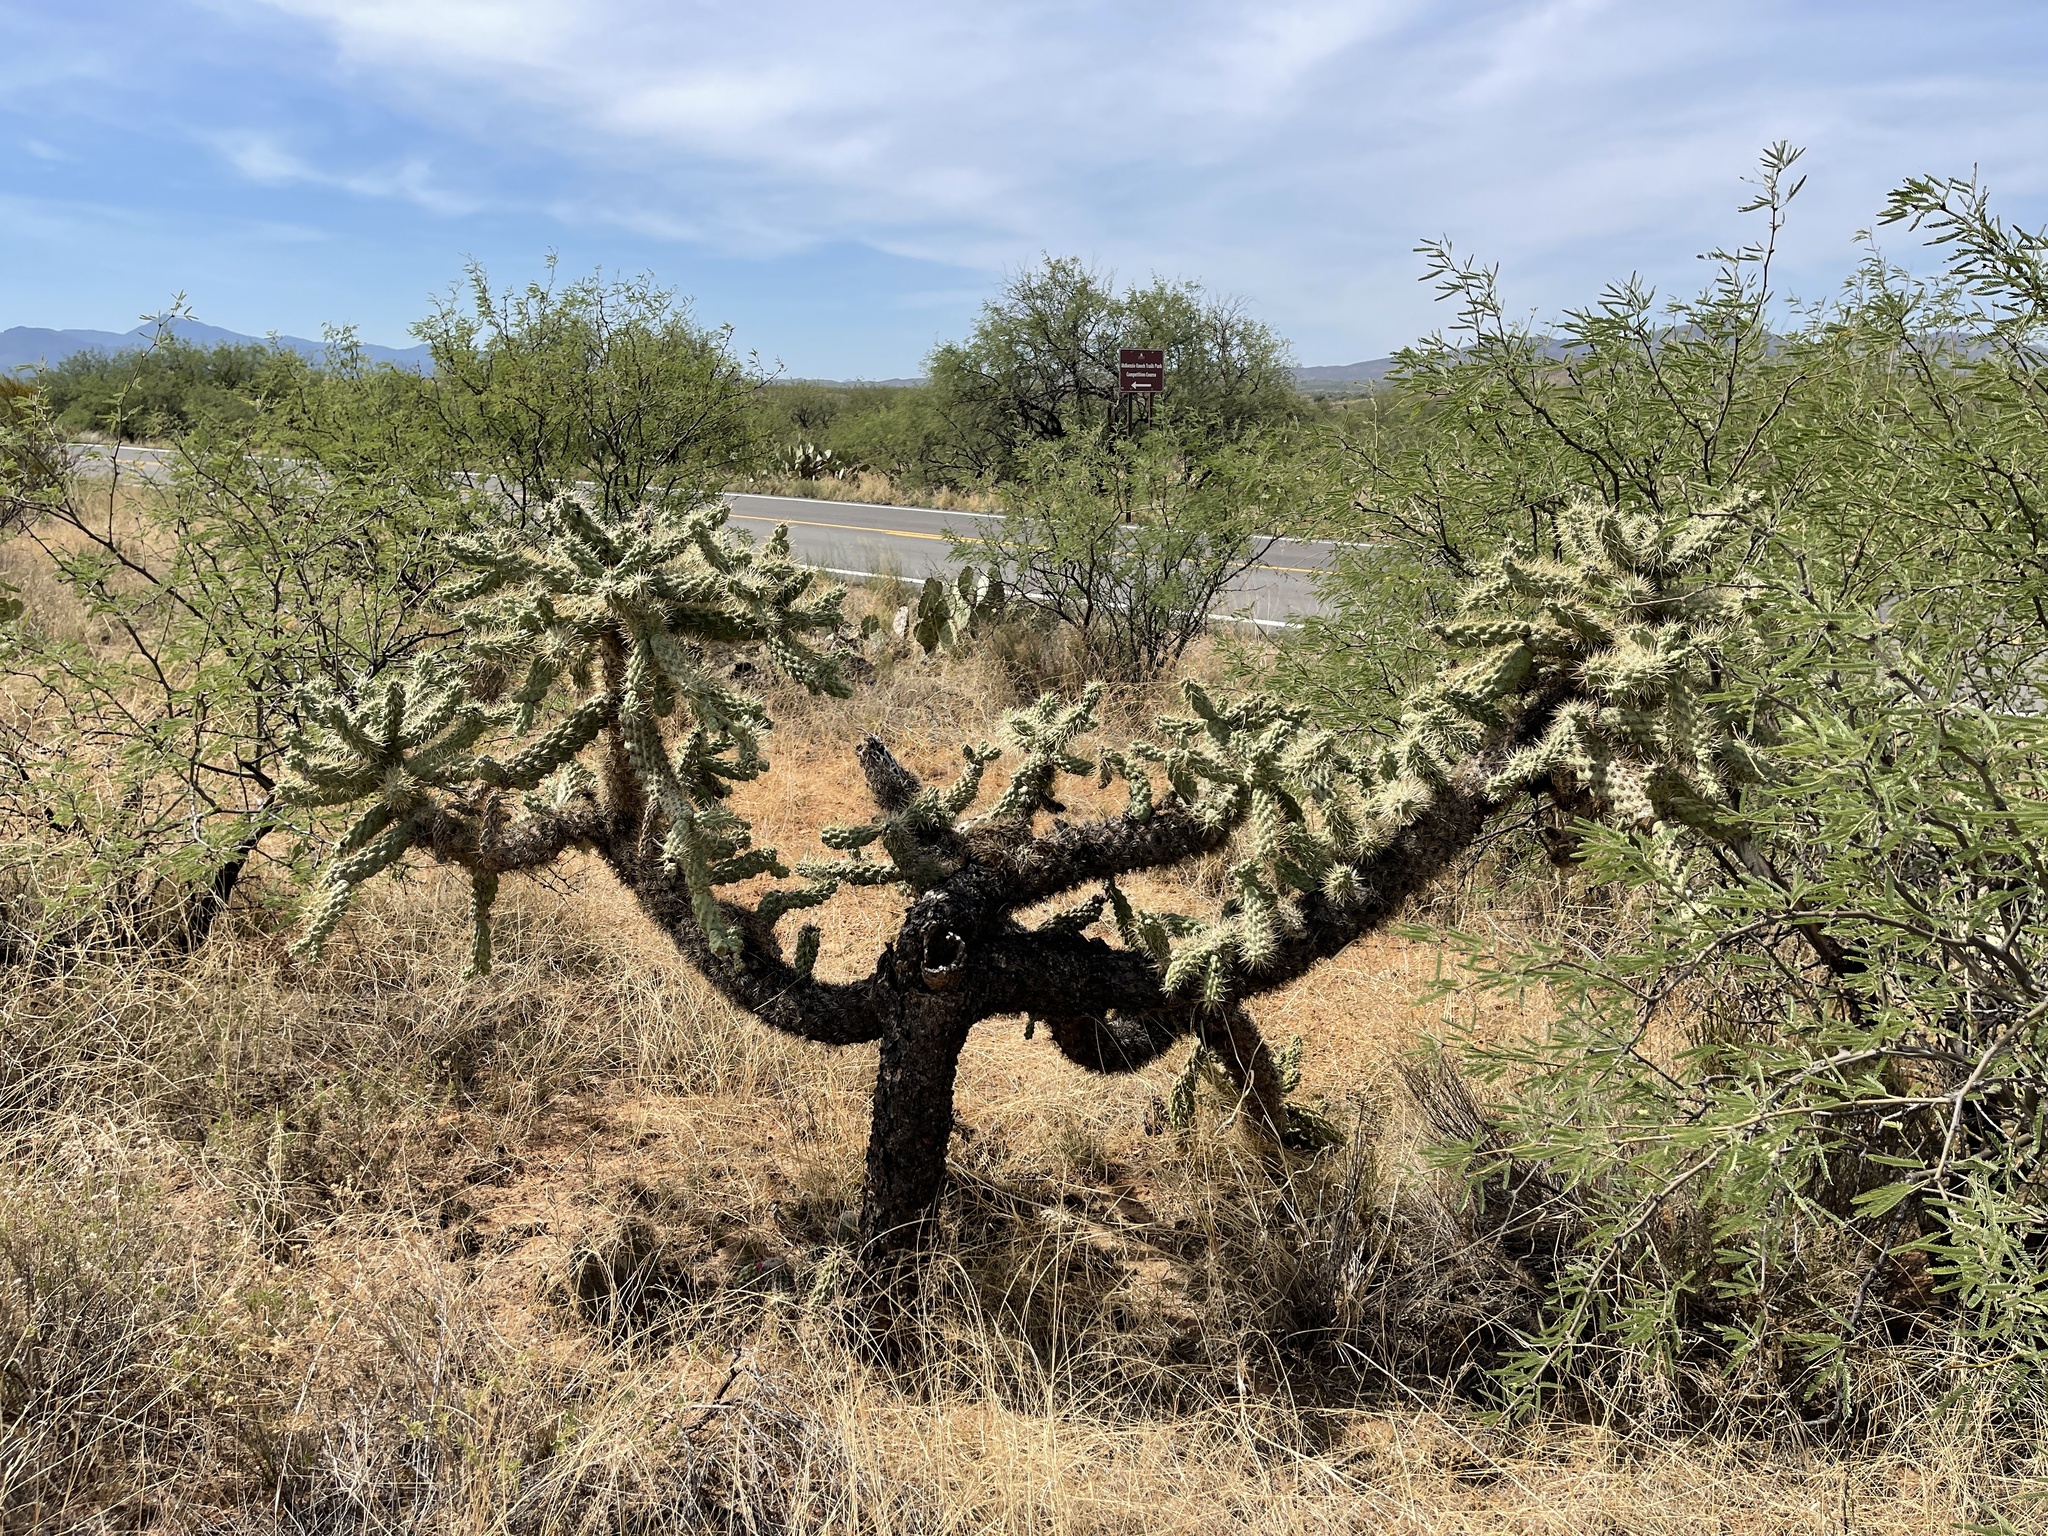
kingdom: Plantae
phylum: Tracheophyta
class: Magnoliopsida
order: Caryophyllales
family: Cactaceae
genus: Cylindropuntia
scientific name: Cylindropuntia fulgida
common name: Jumping cholla
